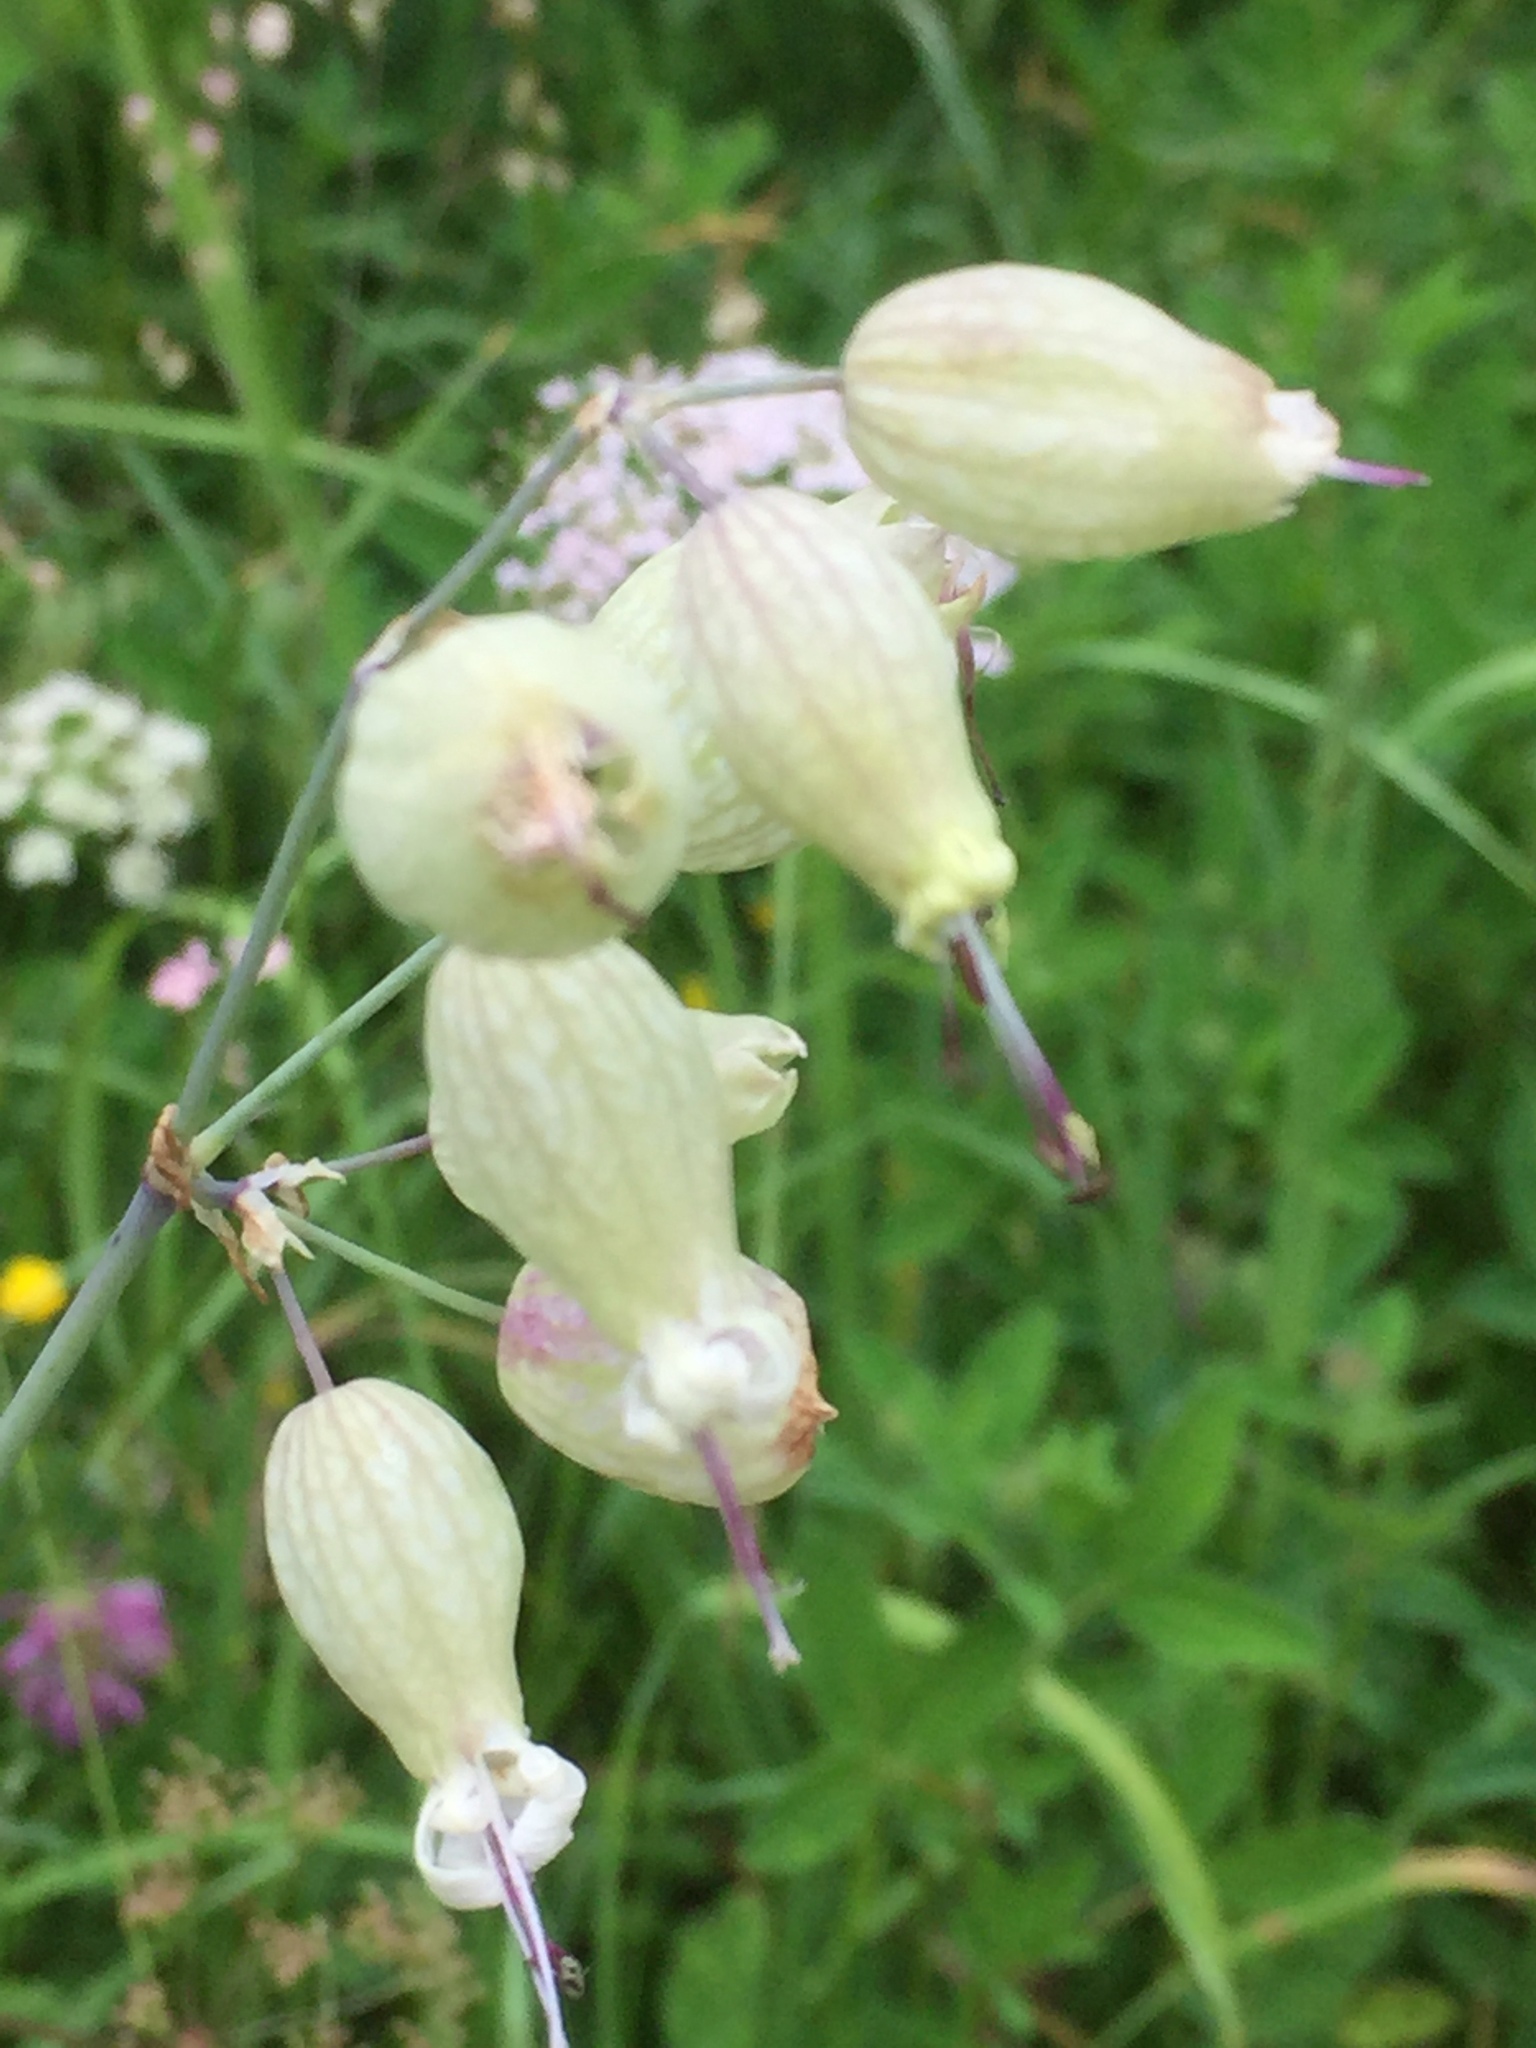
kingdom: Plantae
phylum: Tracheophyta
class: Magnoliopsida
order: Caryophyllales
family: Caryophyllaceae
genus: Silene
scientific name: Silene vulgaris
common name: Bladder campion
